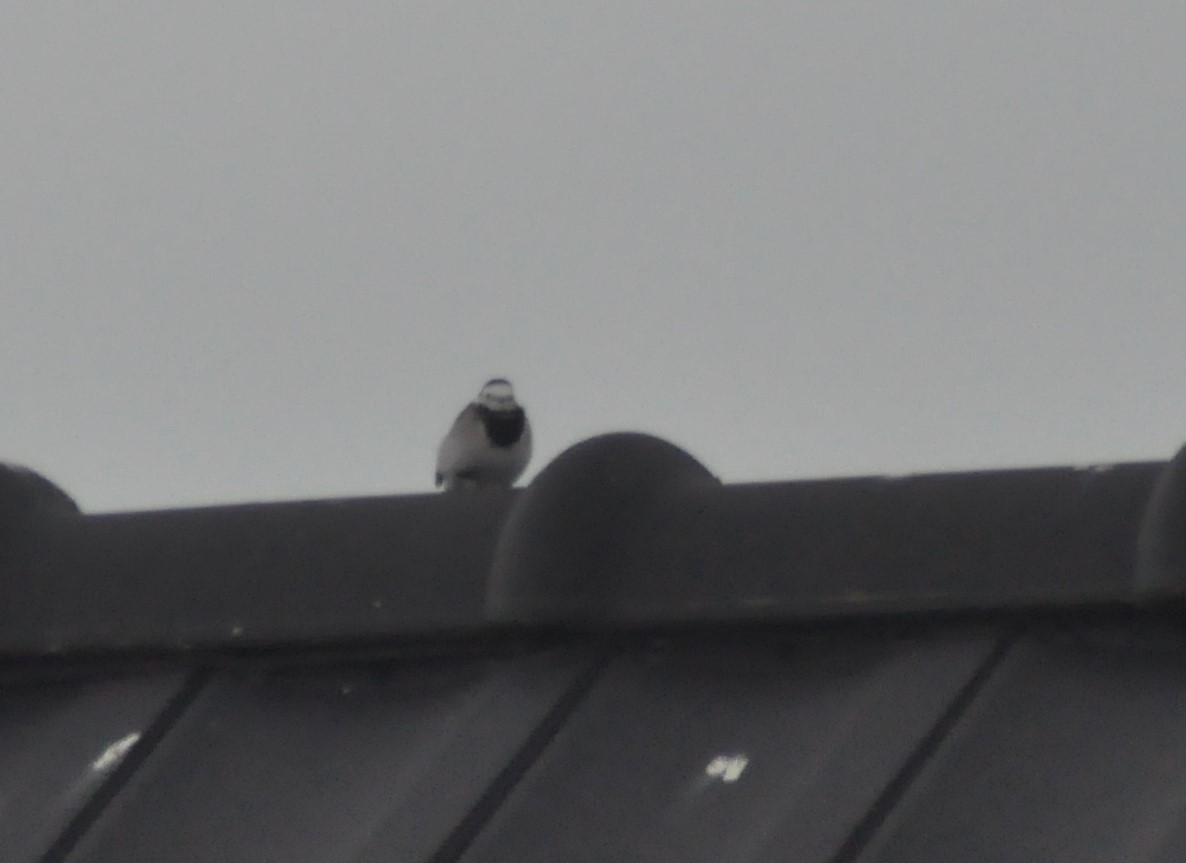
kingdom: Animalia
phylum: Chordata
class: Aves
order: Passeriformes
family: Motacillidae
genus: Motacilla
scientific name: Motacilla alba
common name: White wagtail
